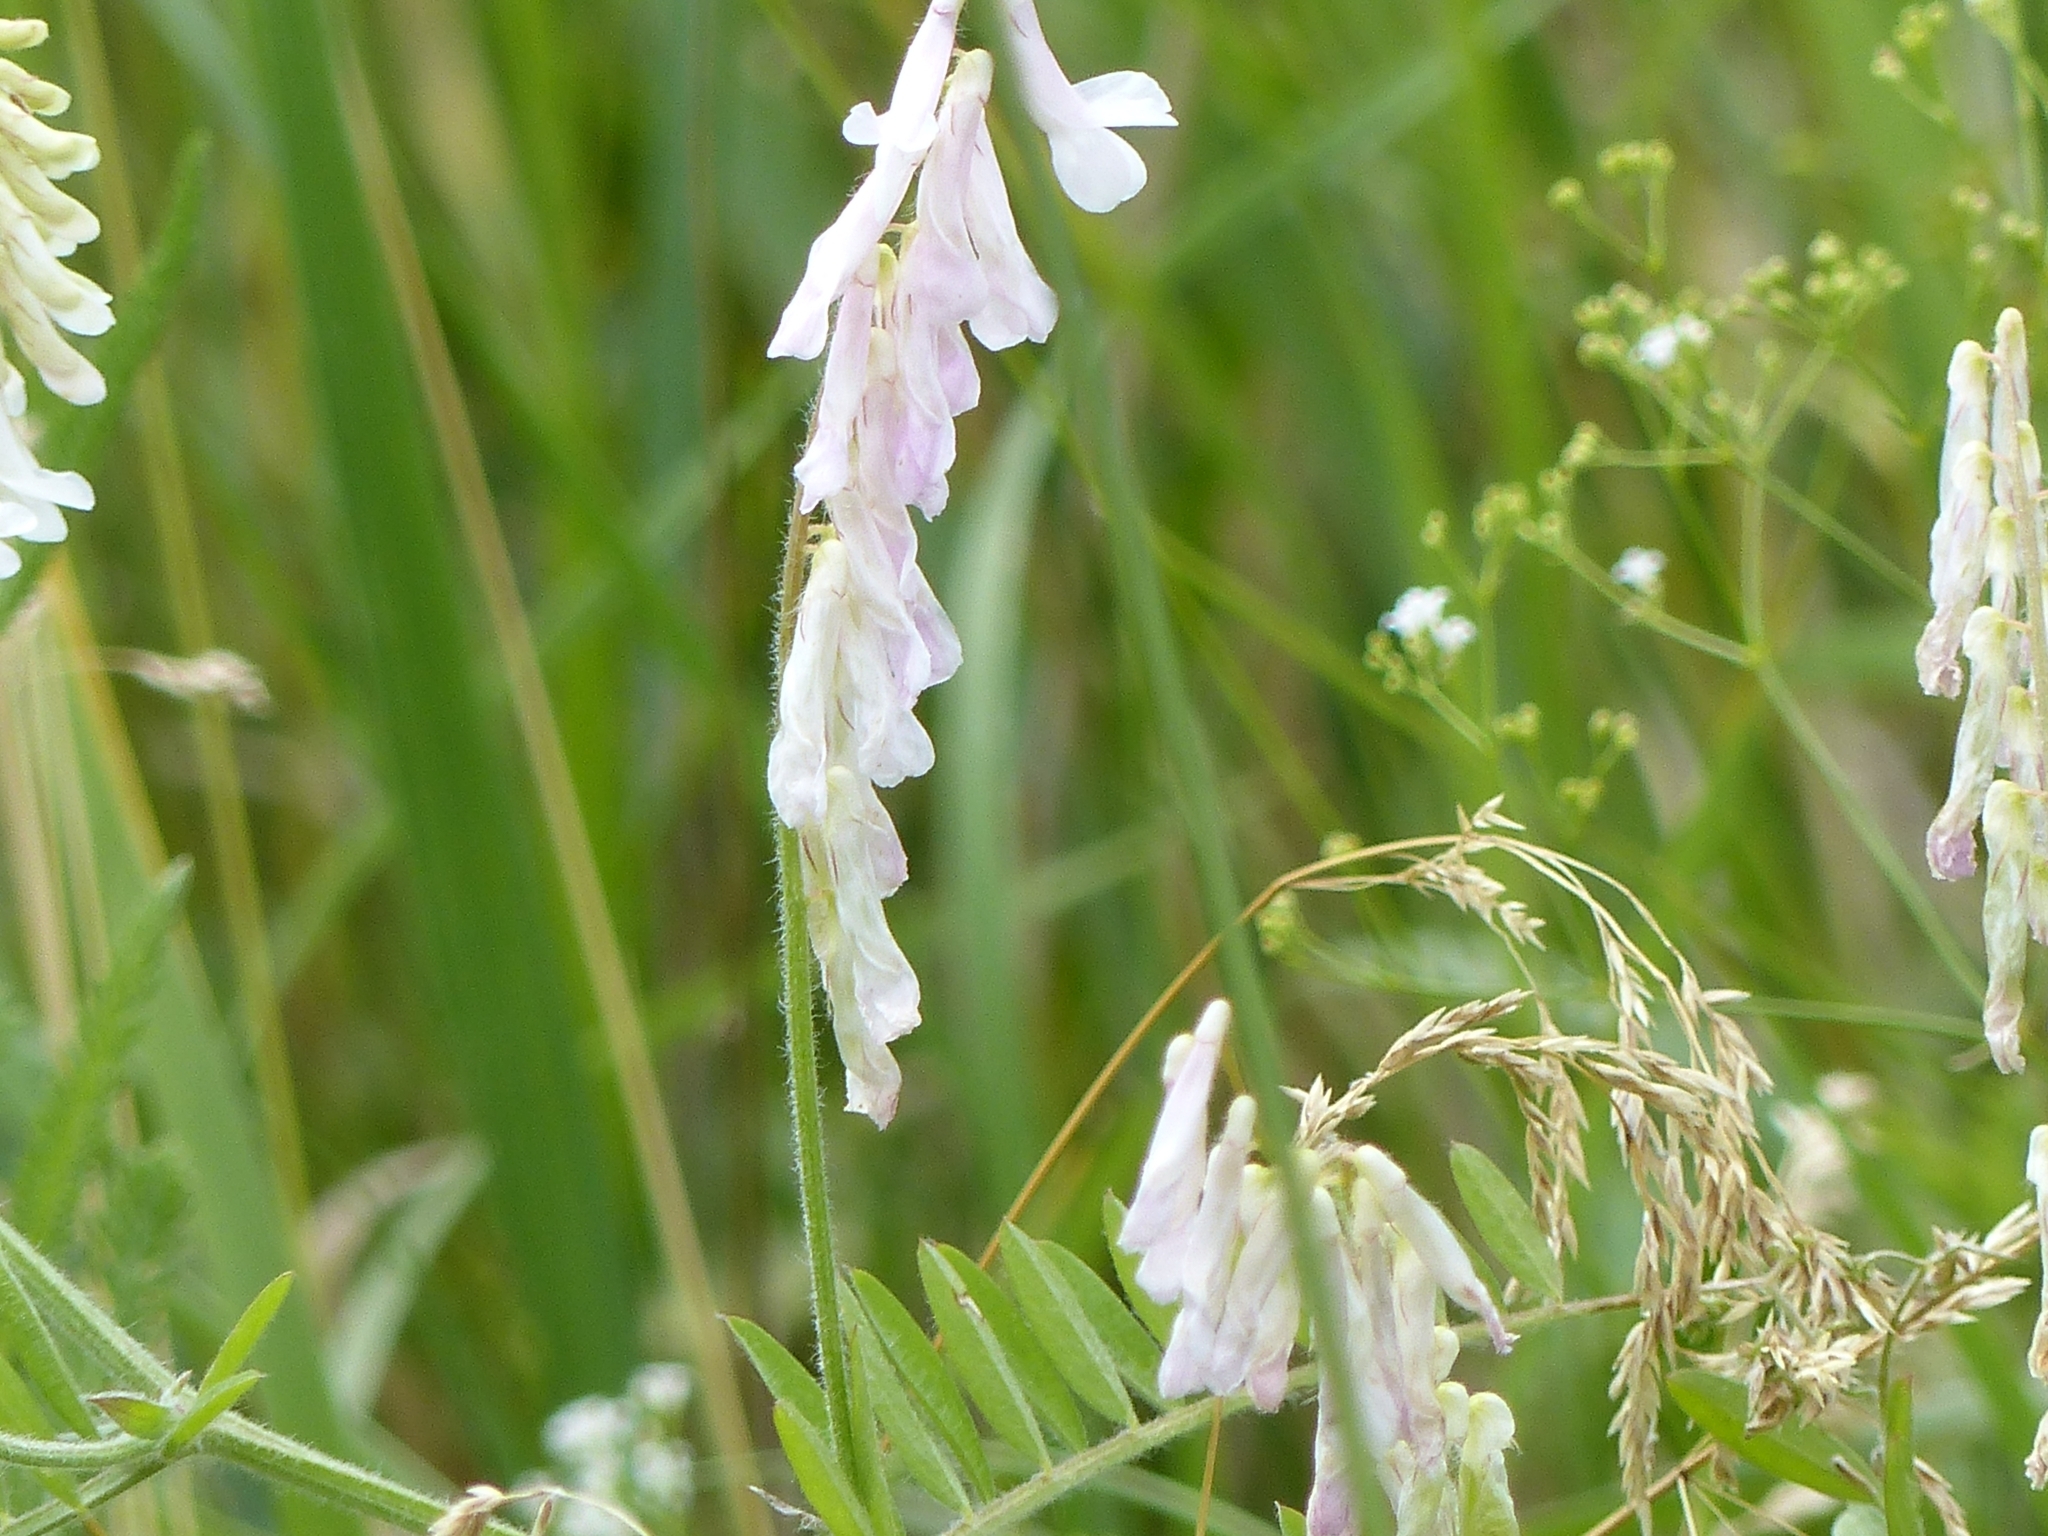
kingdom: Plantae
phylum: Tracheophyta
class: Magnoliopsida
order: Fabales
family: Fabaceae
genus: Vicia
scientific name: Vicia villosa
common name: Fodder vetch
